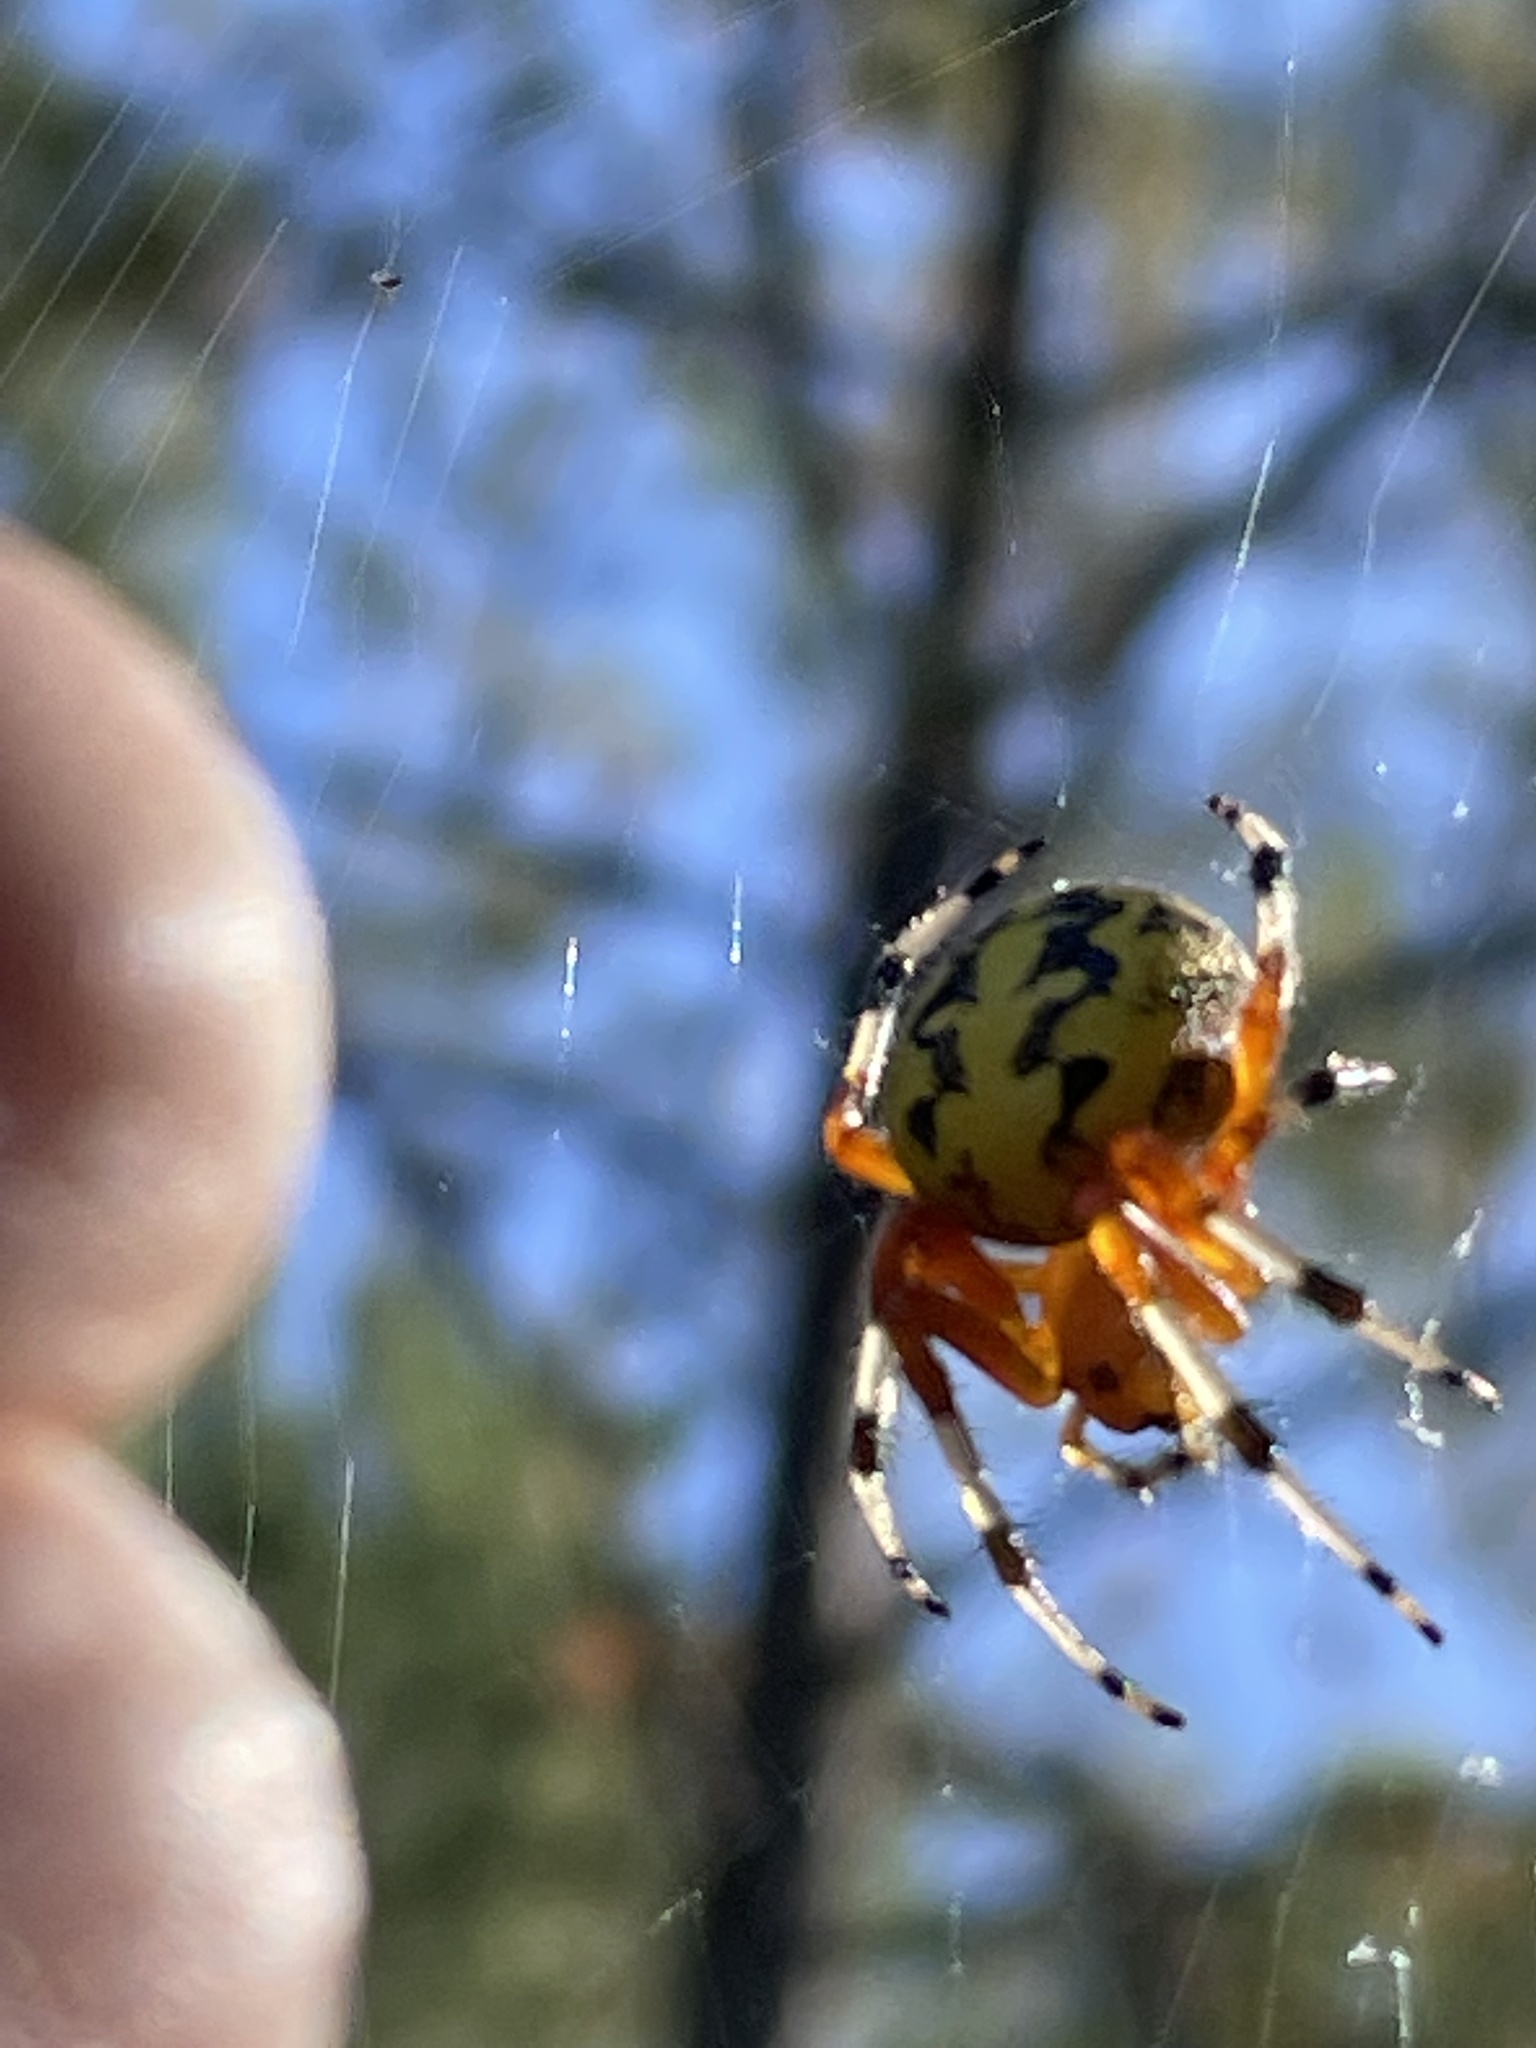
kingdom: Animalia
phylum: Arthropoda
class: Arachnida
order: Araneae
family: Araneidae
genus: Araneus
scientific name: Araneus marmoreus
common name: Marbled orbweaver
